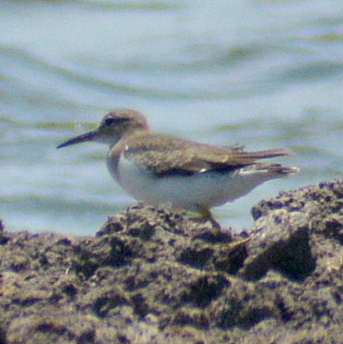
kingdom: Animalia
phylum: Chordata
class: Aves
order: Charadriiformes
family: Scolopacidae
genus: Actitis
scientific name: Actitis macularius
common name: Spotted sandpiper
